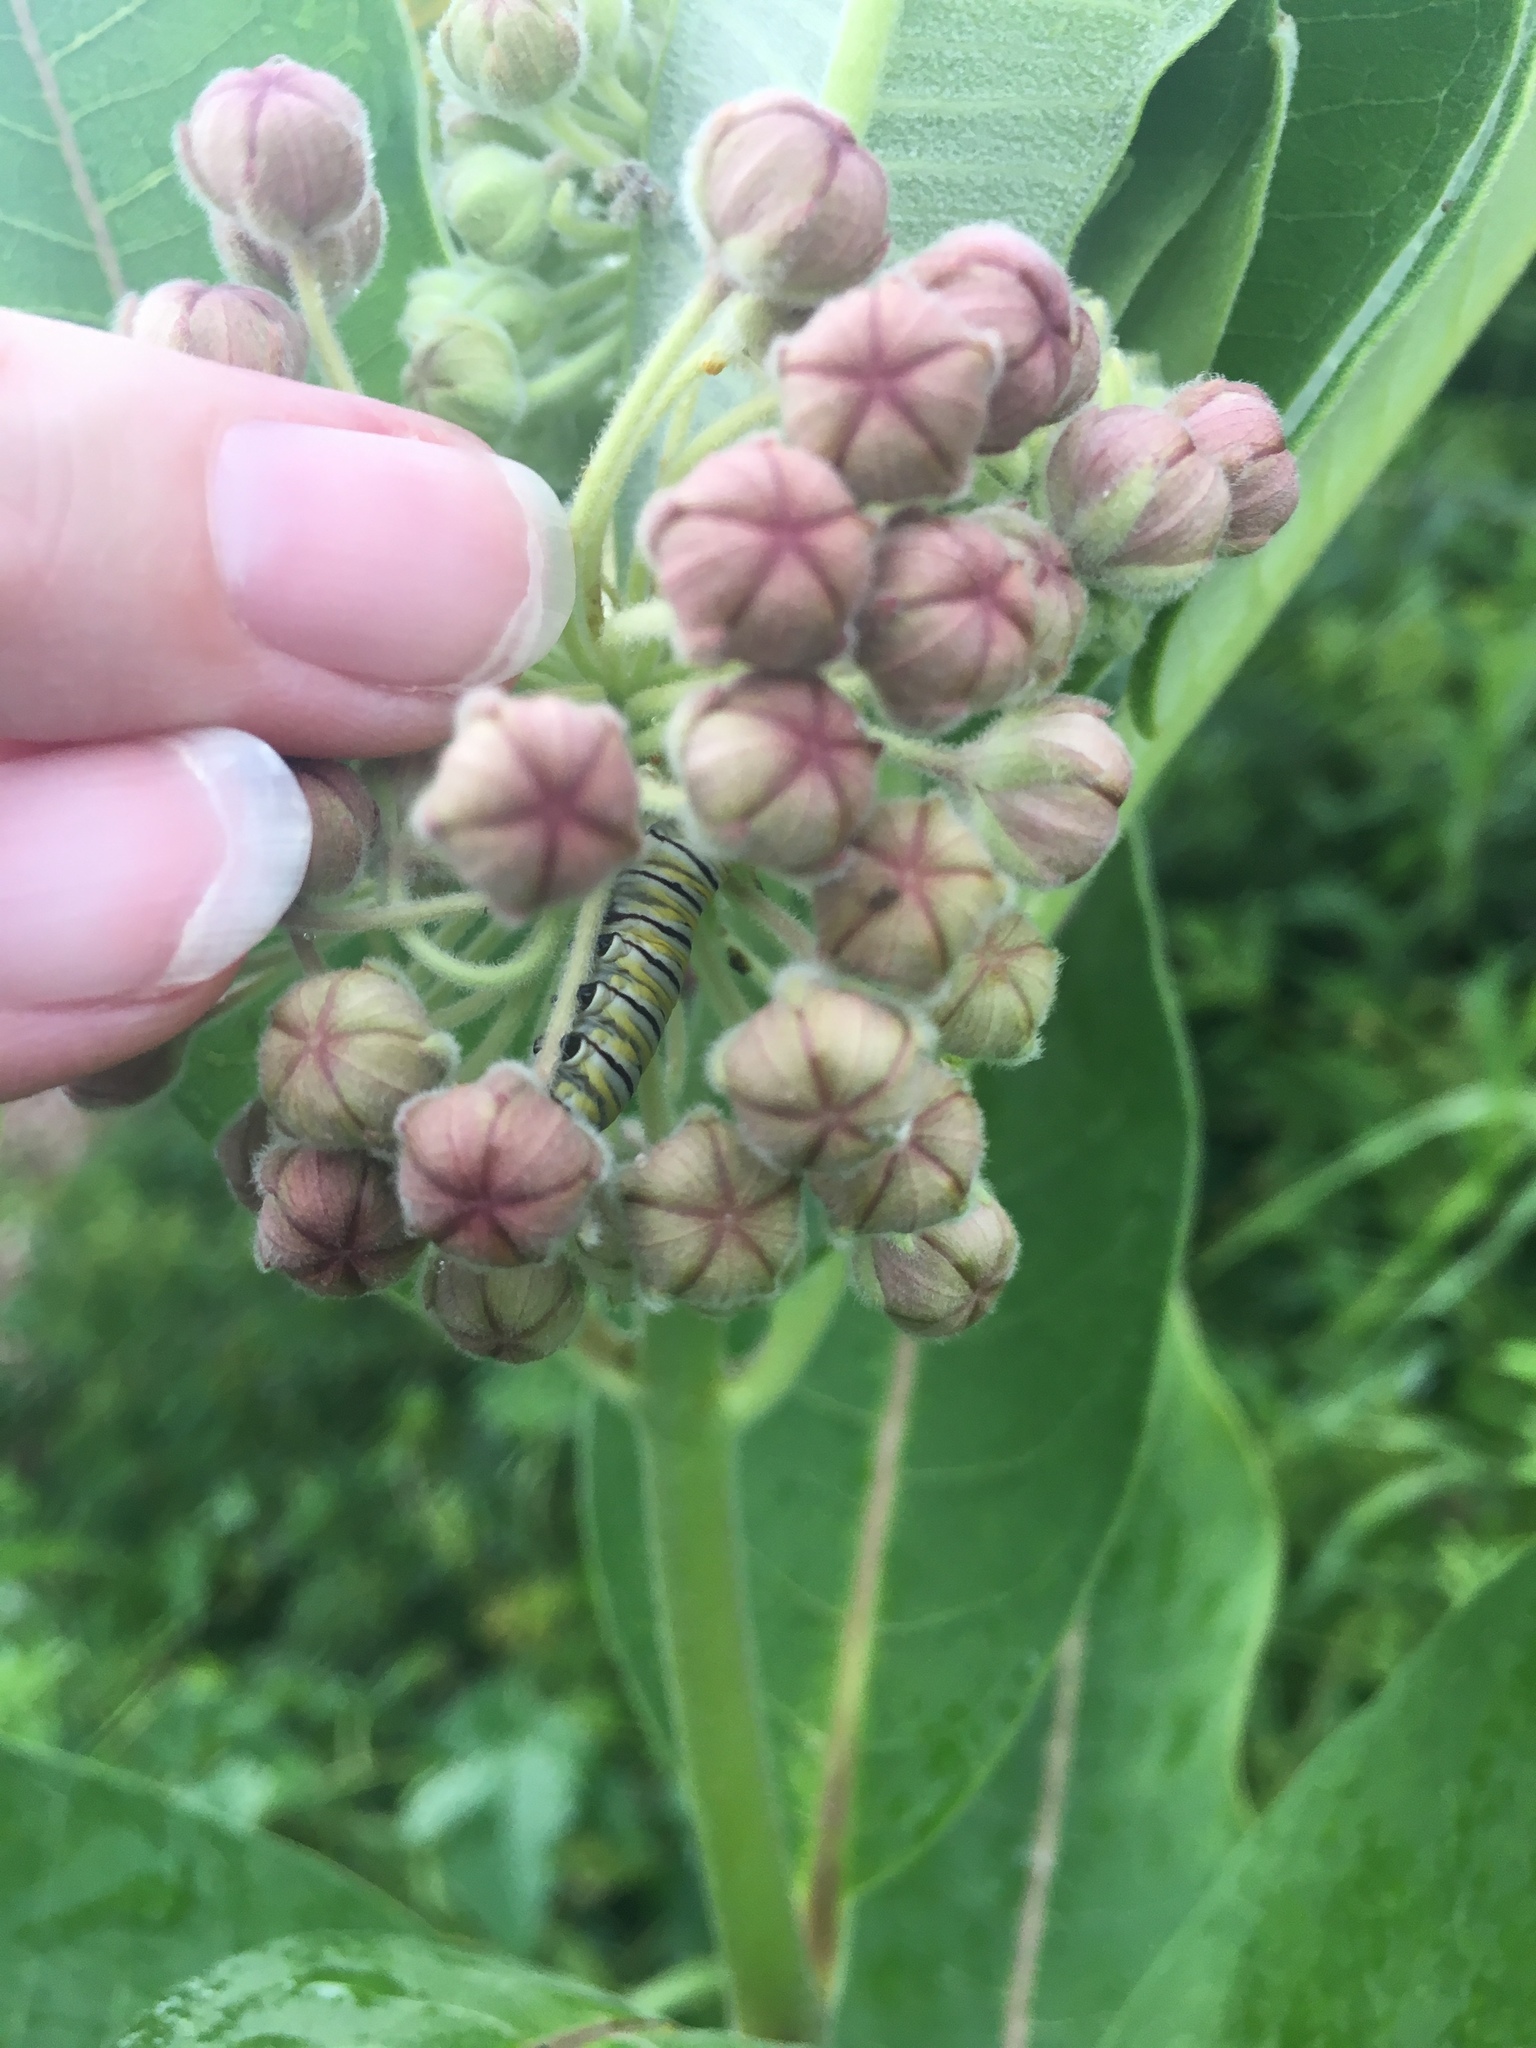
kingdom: Animalia
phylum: Arthropoda
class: Insecta
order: Lepidoptera
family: Nymphalidae
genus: Danaus
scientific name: Danaus plexippus
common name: Monarch
